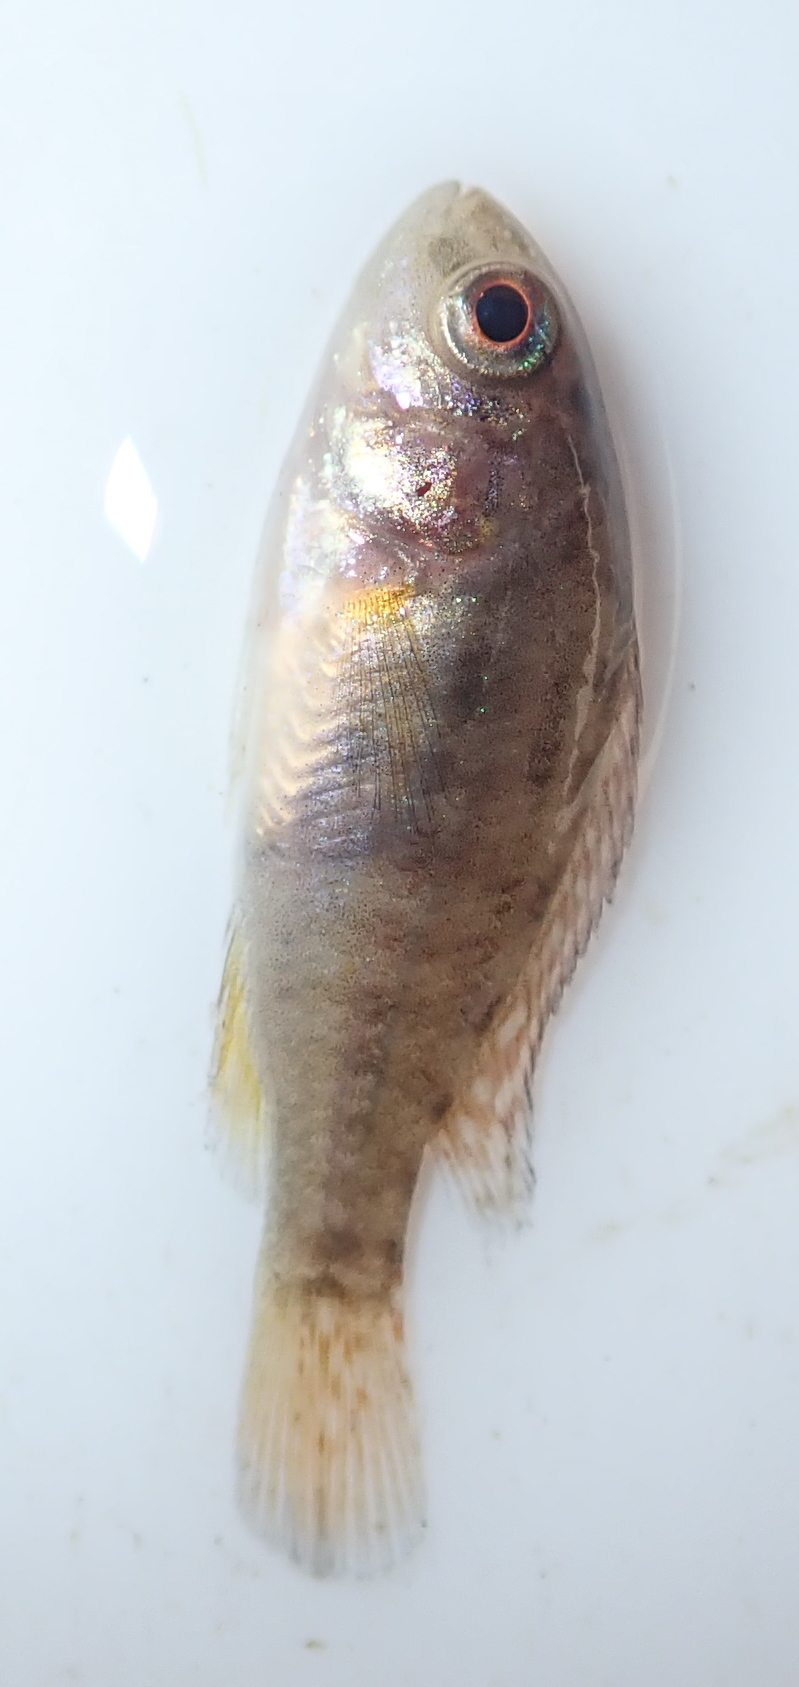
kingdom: Animalia
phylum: Chordata
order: Perciformes
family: Cichlidae
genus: Pseudocrenilabrus
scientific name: Pseudocrenilabrus philander
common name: Southern mouthbrooder
